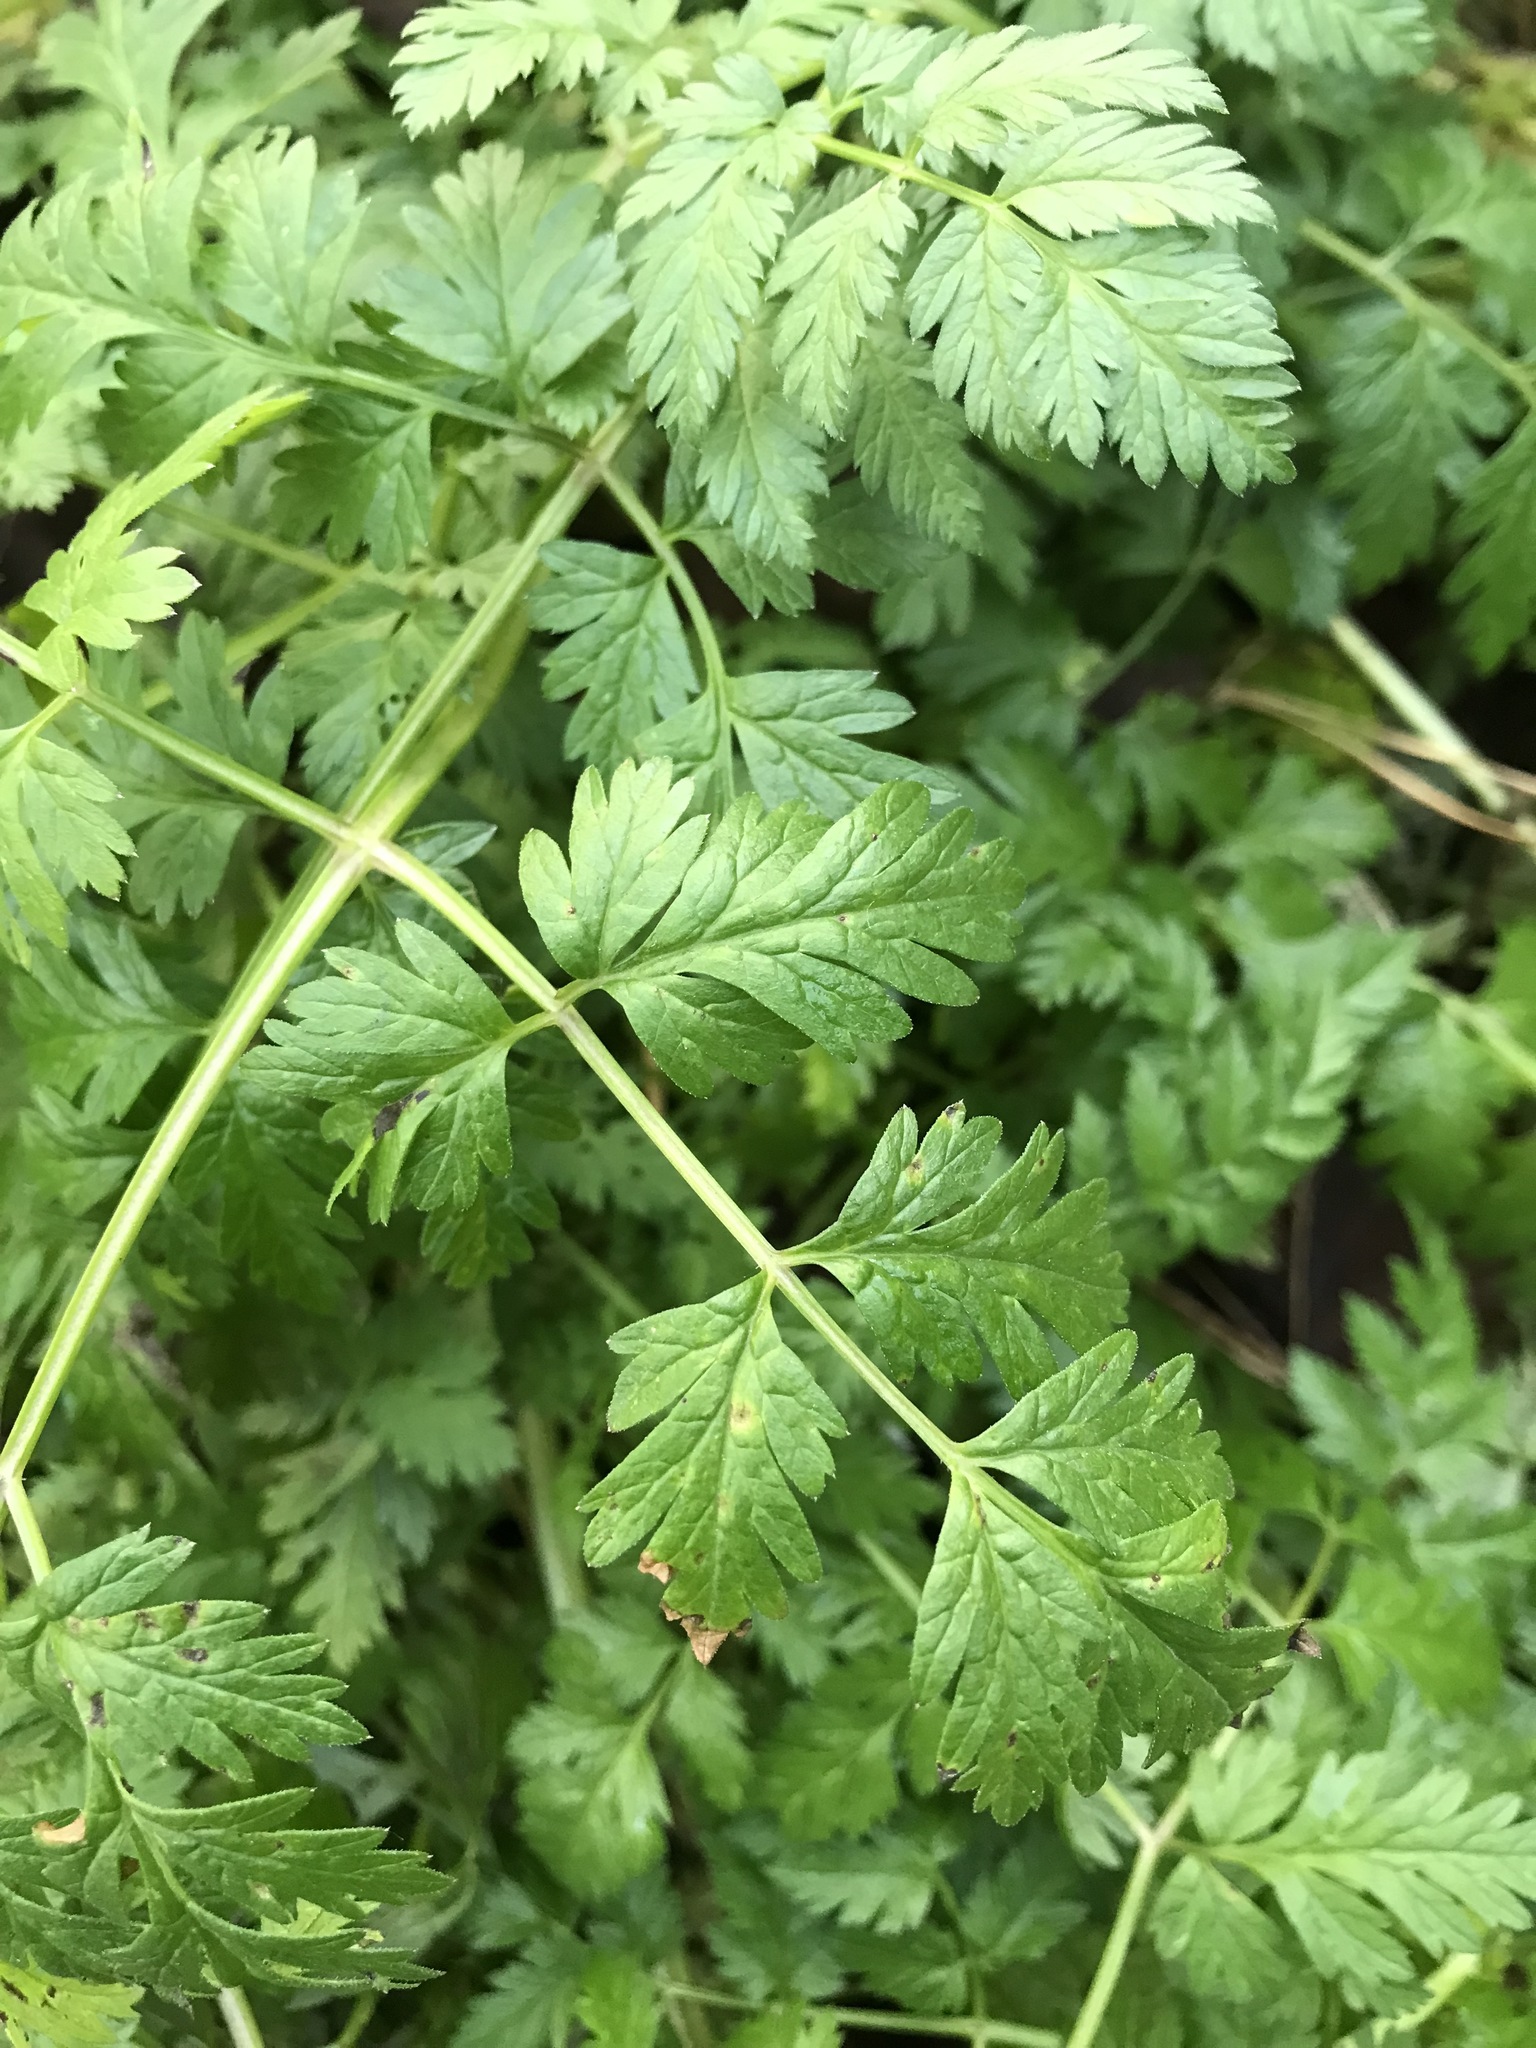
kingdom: Plantae
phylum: Tracheophyta
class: Magnoliopsida
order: Apiales
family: Apiaceae
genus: Anthriscus
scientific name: Anthriscus sylvestris
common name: Cow parsley
